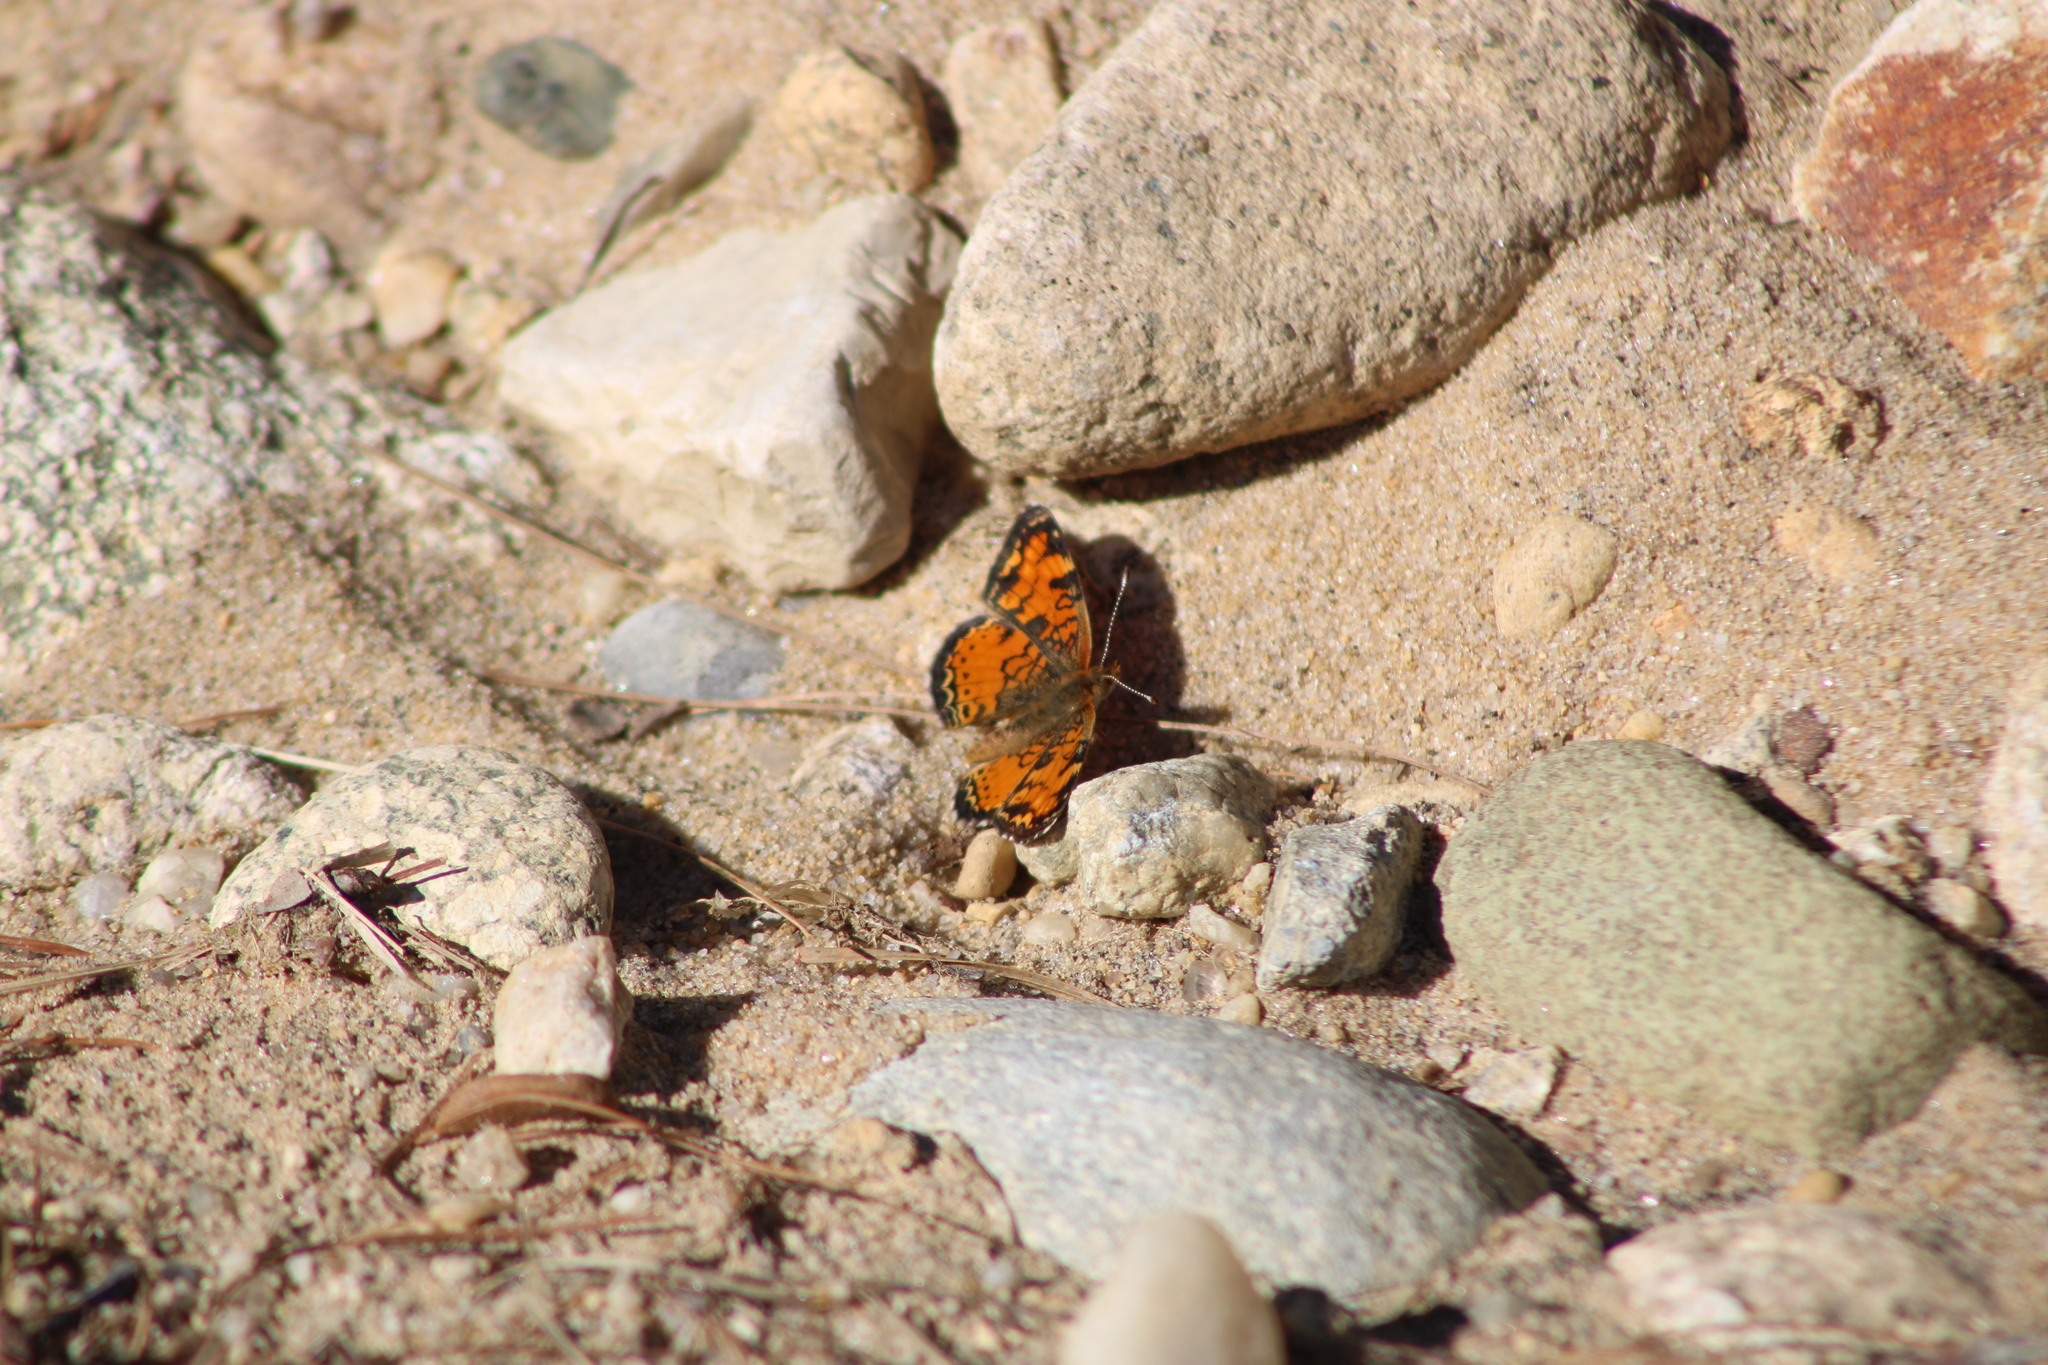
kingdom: Animalia
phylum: Arthropoda
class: Insecta
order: Lepidoptera
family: Nymphalidae
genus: Phyciodes
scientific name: Phyciodes tharos
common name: Pearl crescent
